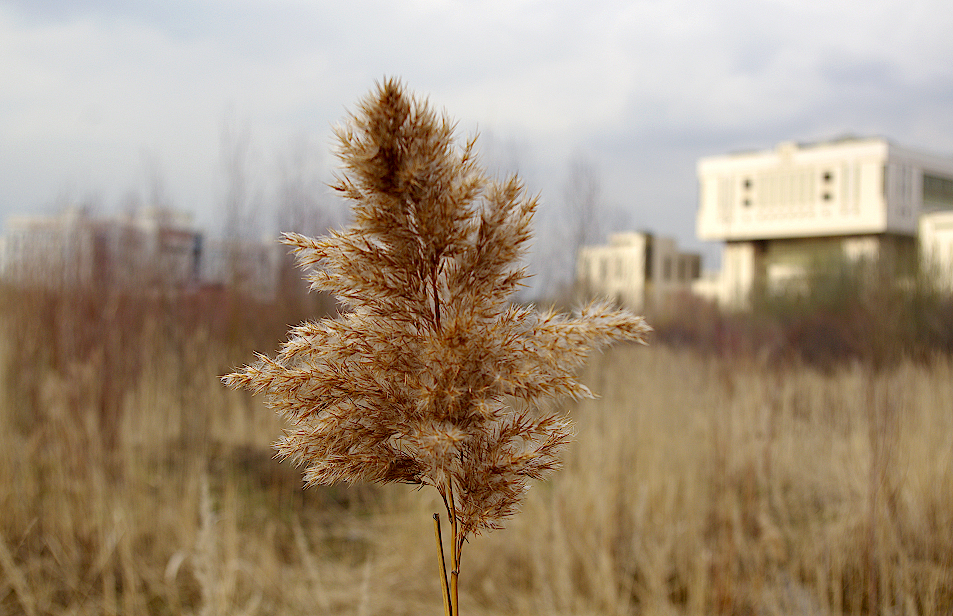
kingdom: Plantae
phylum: Tracheophyta
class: Liliopsida
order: Poales
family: Poaceae
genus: Phragmites
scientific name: Phragmites australis
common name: Common reed
